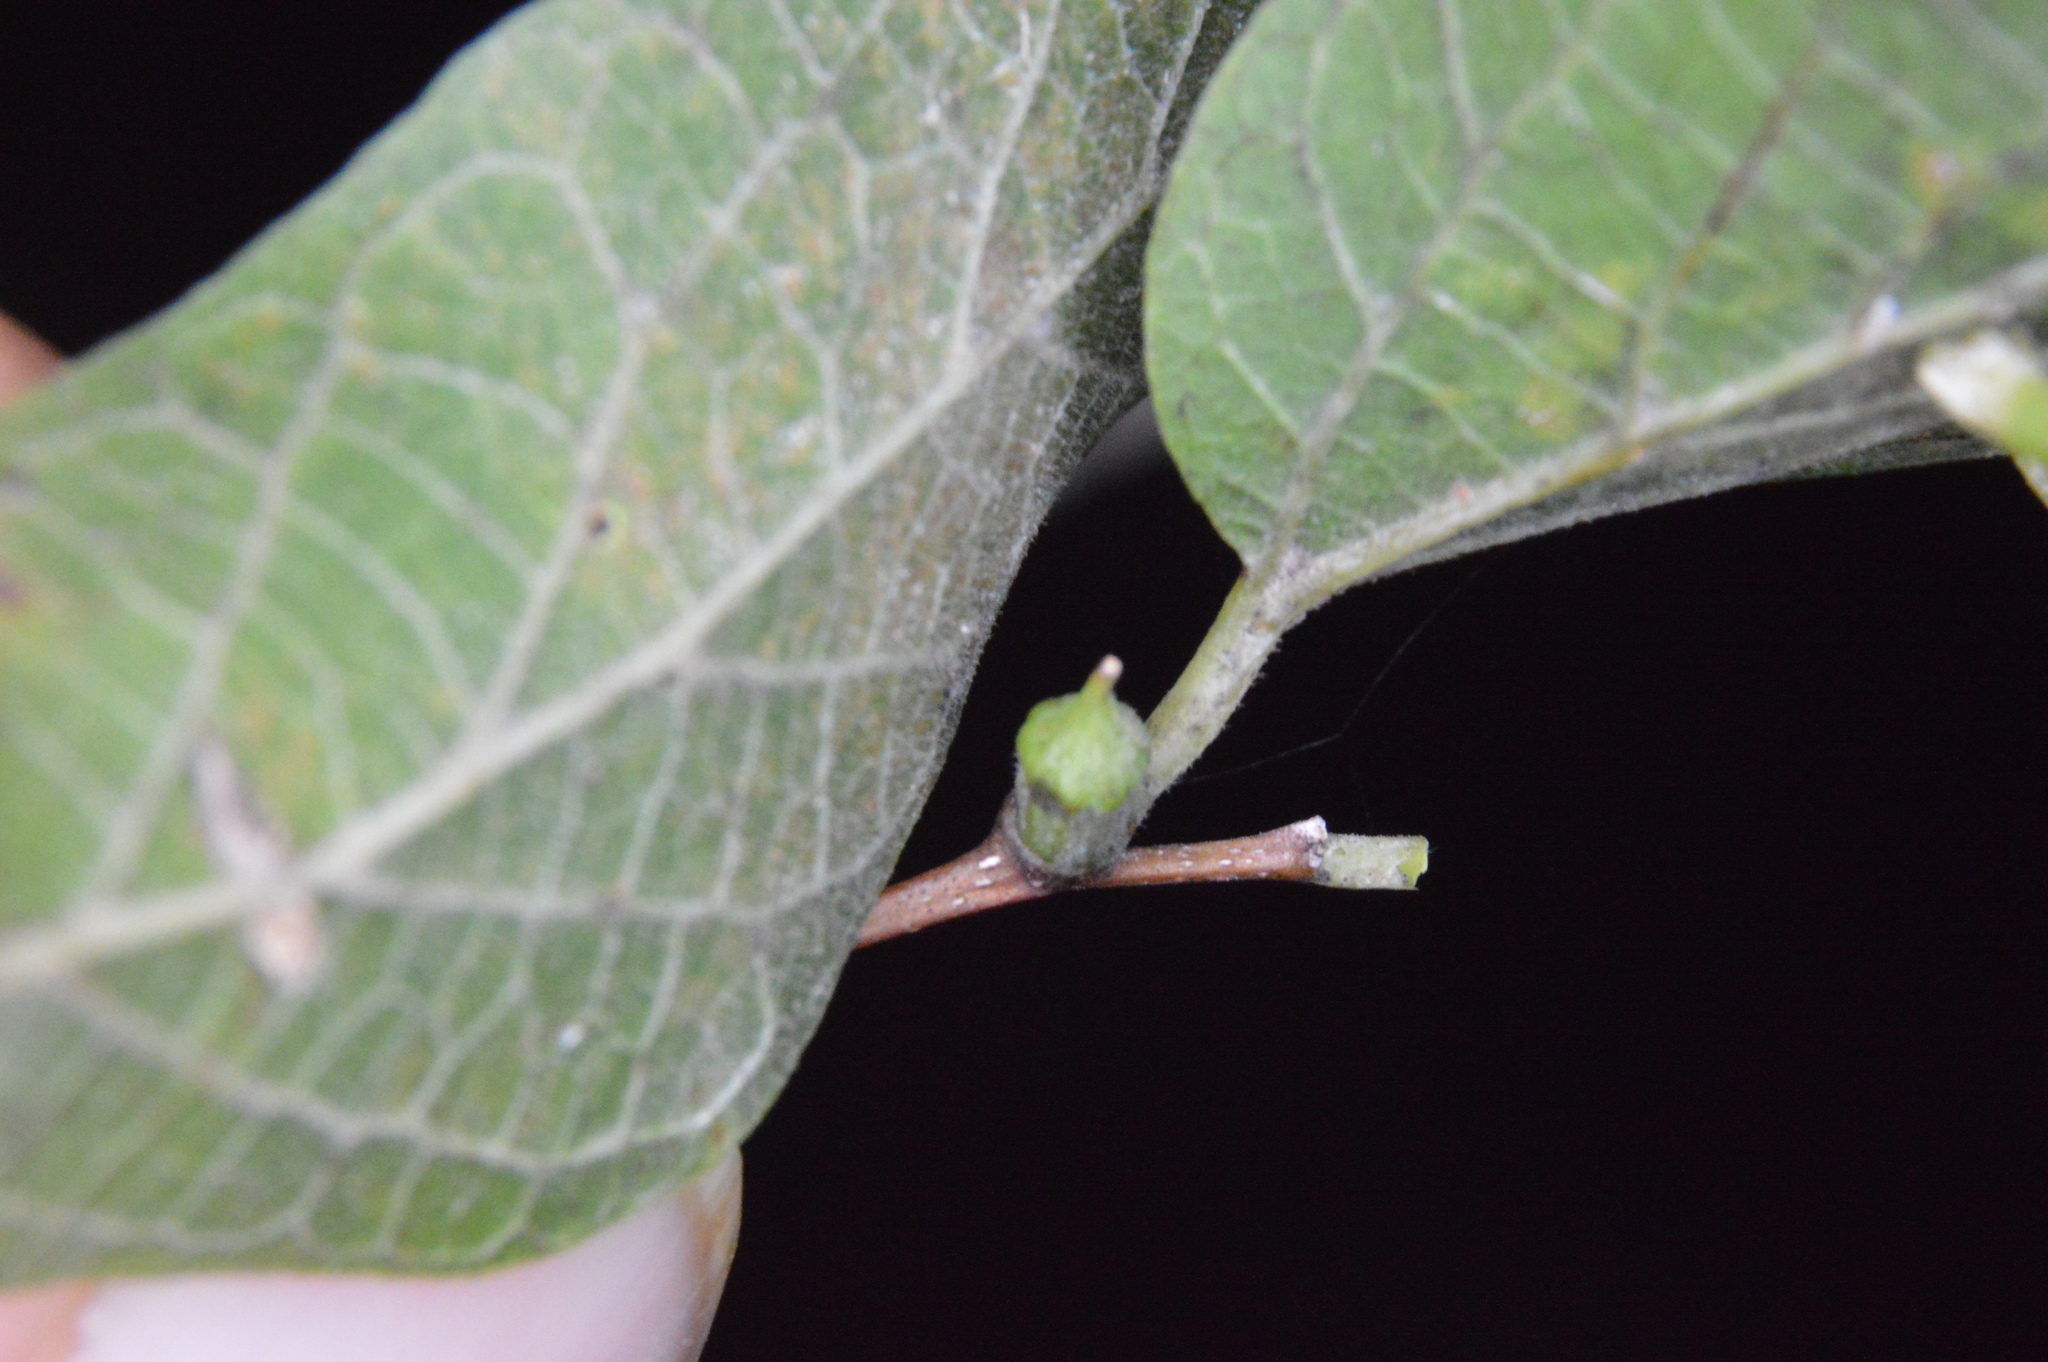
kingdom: Animalia
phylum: Arthropoda
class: Insecta
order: Diptera
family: Cecidomyiidae
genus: Celticecis
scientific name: Celticecis ramicola
